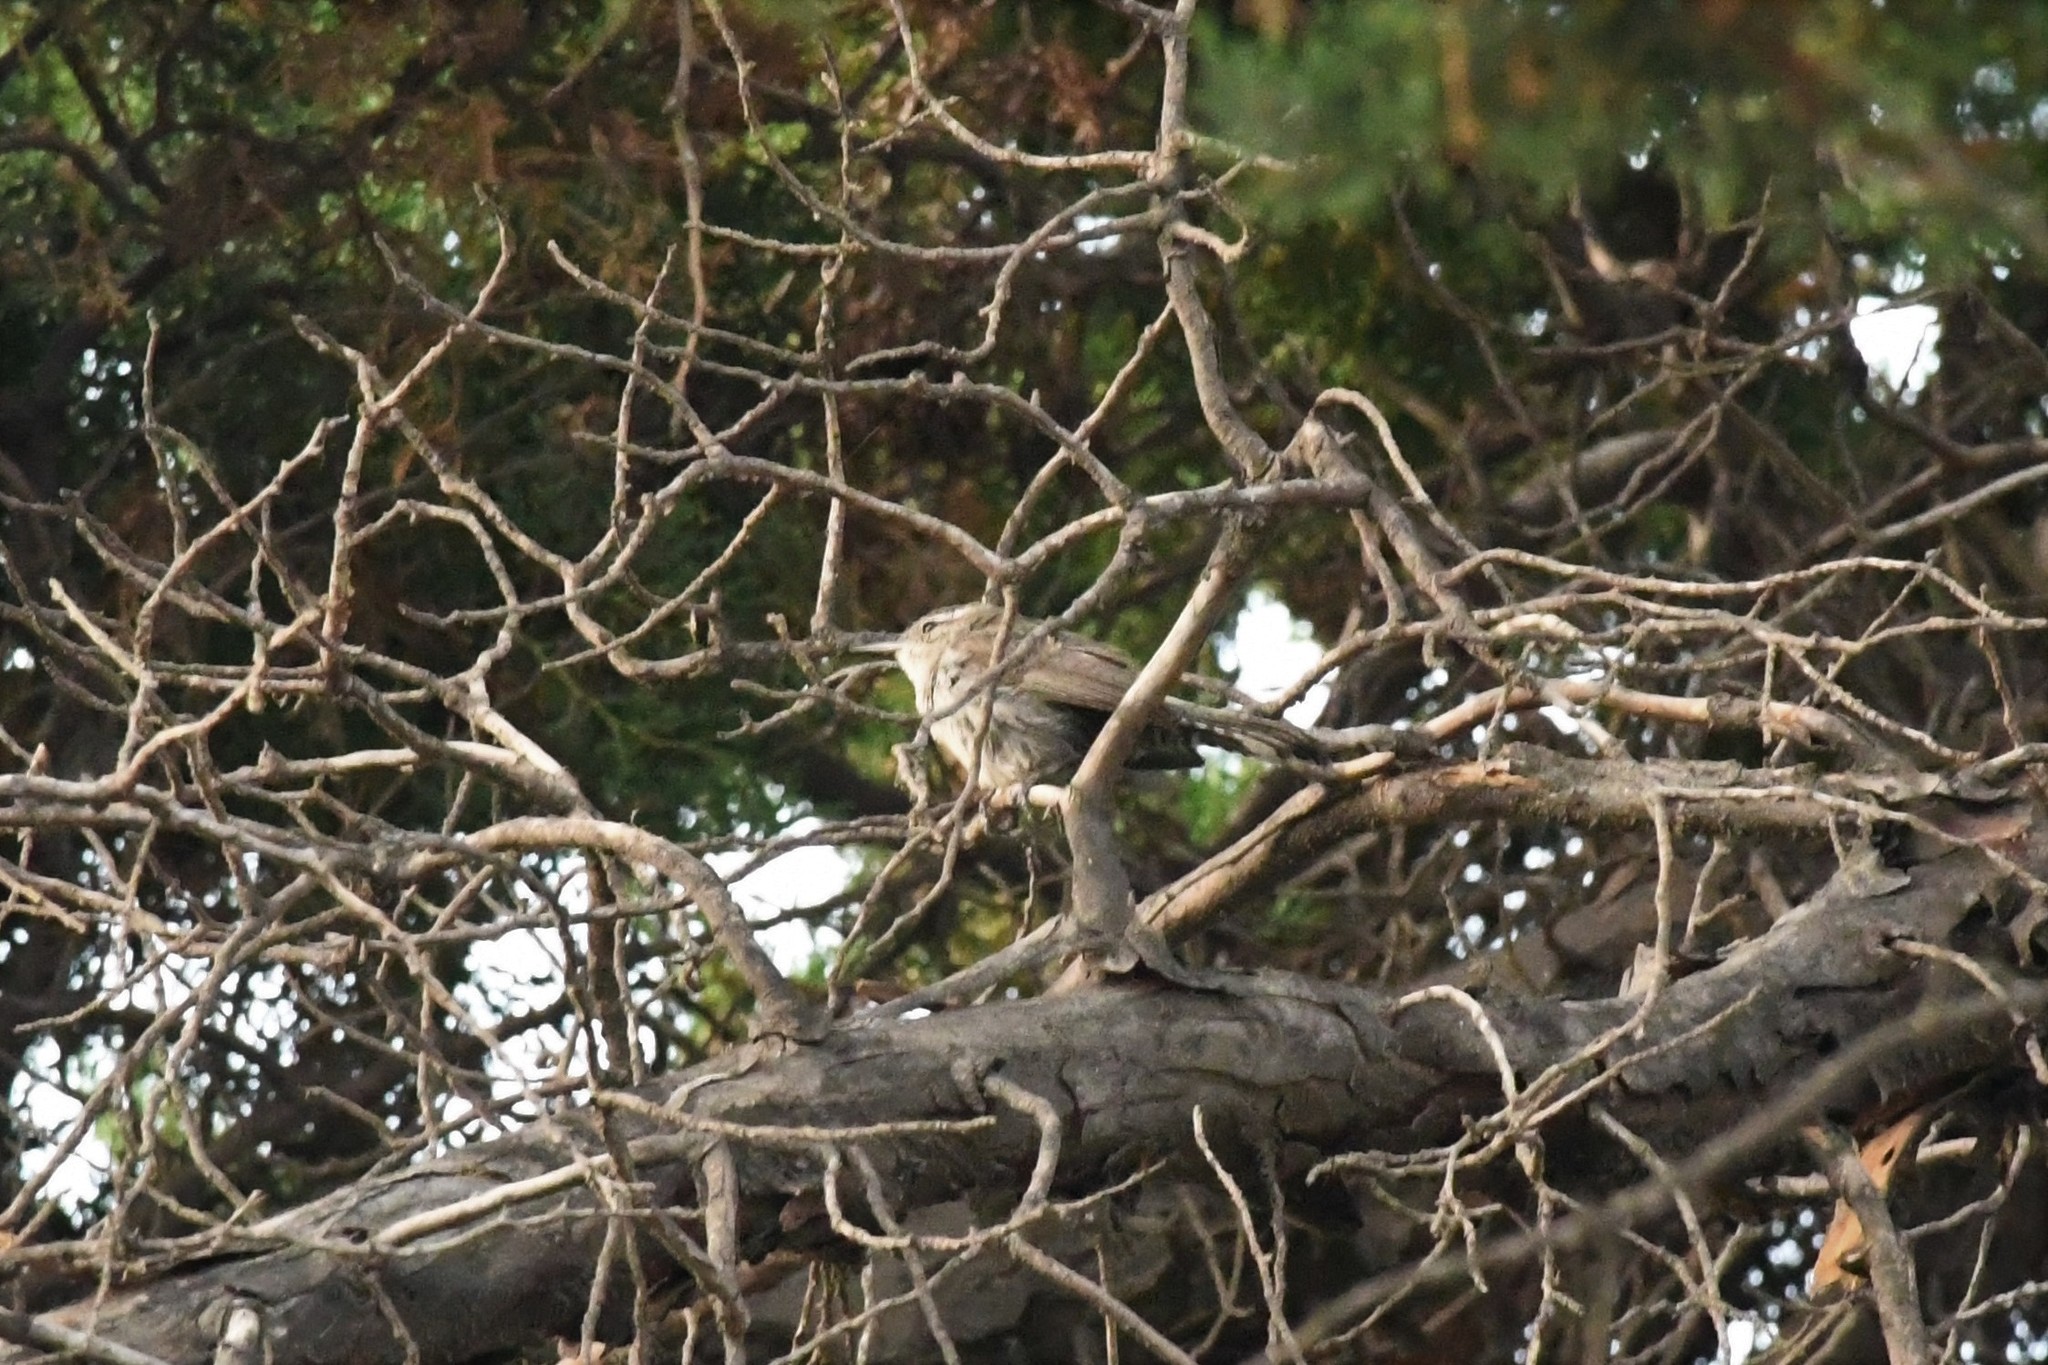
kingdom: Animalia
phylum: Chordata
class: Aves
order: Passeriformes
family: Troglodytidae
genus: Thryomanes
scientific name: Thryomanes bewickii
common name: Bewick's wren
